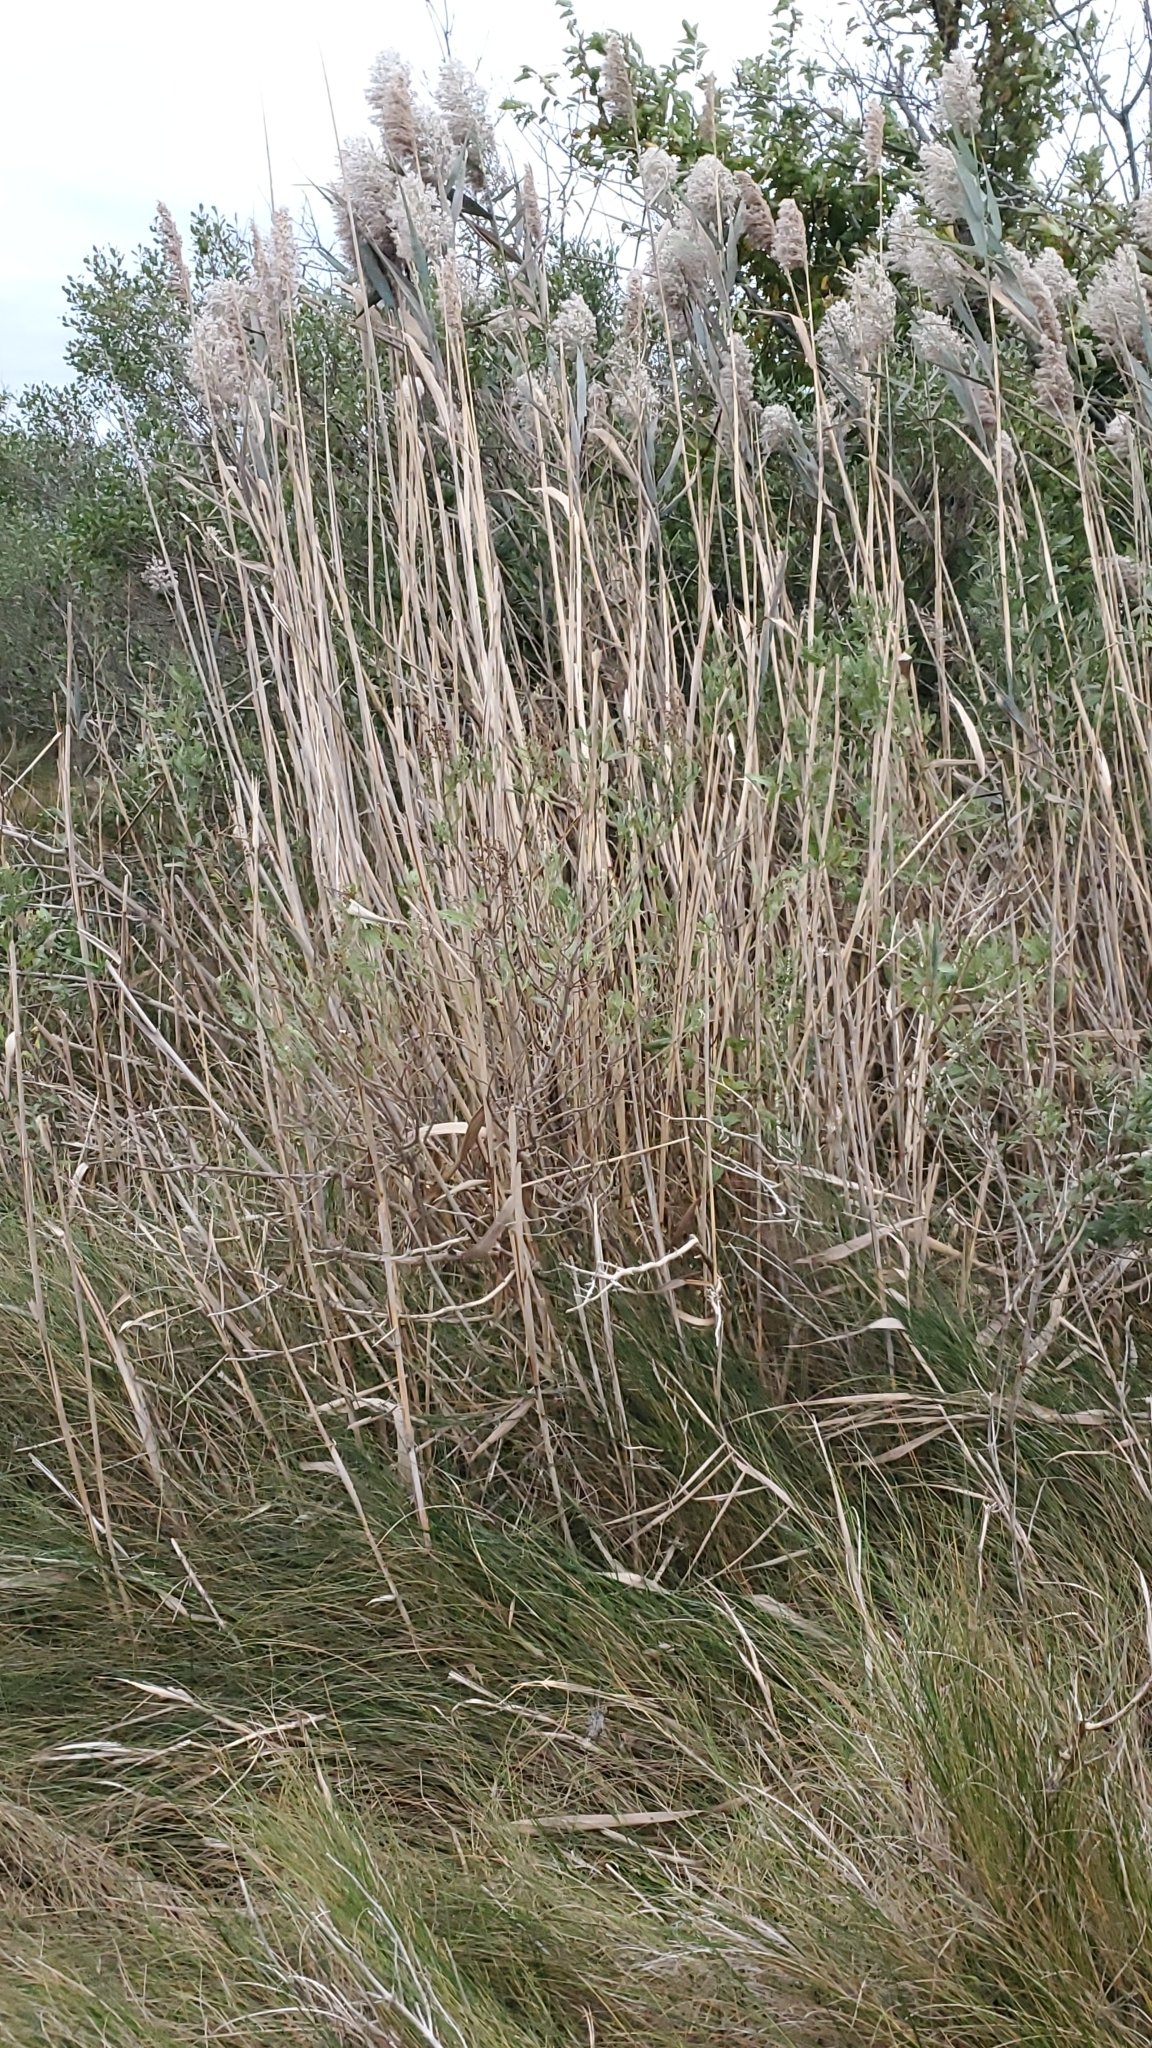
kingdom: Plantae
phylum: Tracheophyta
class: Liliopsida
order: Poales
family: Poaceae
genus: Phragmites
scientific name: Phragmites australis
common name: Common reed
